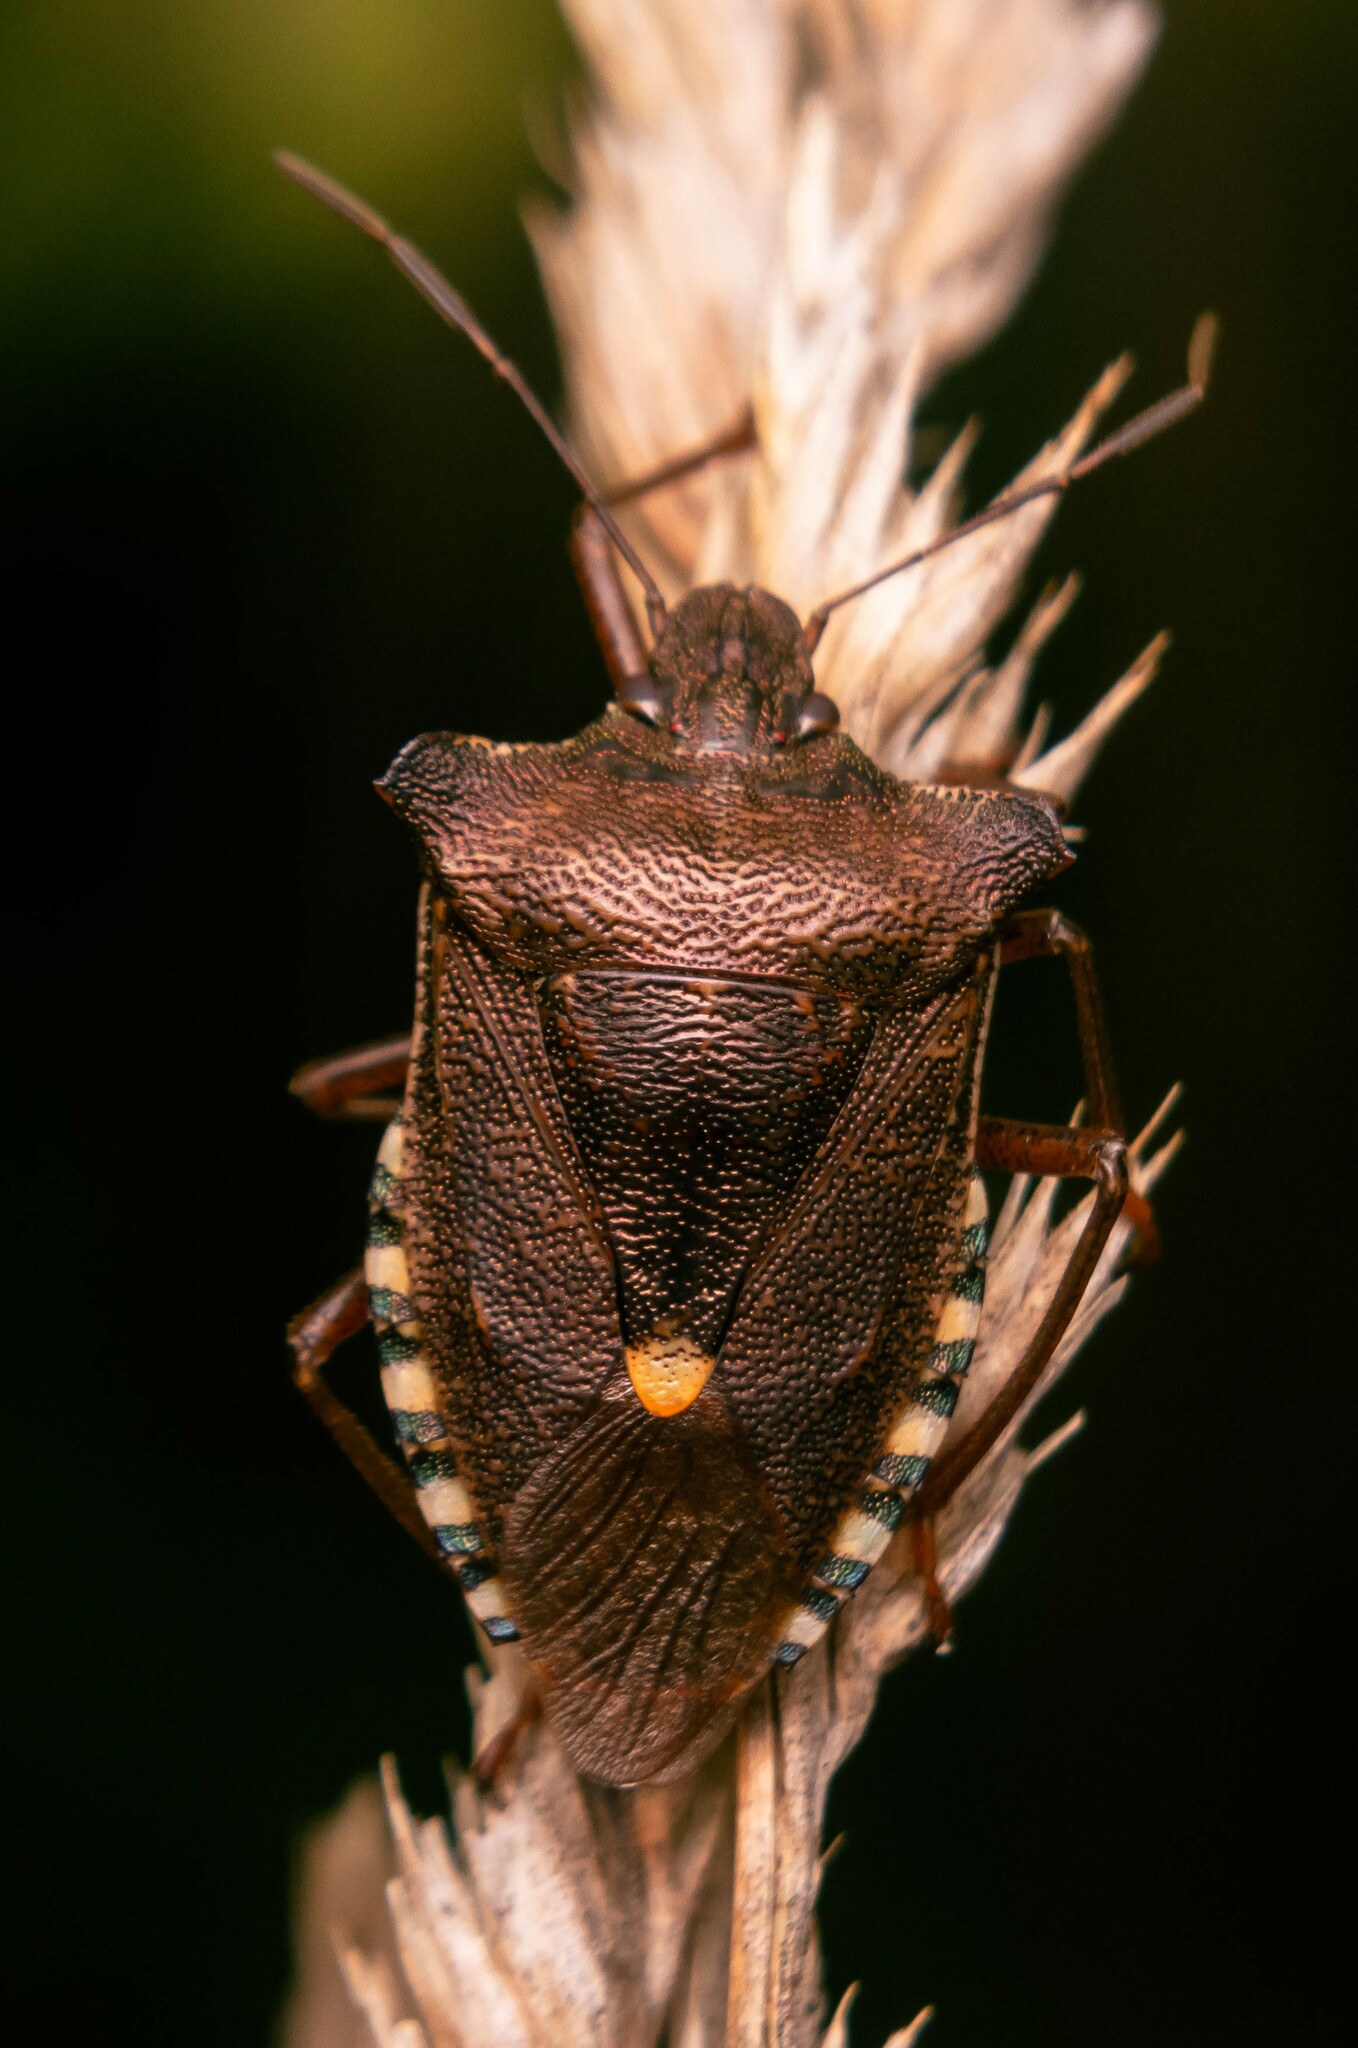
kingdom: Animalia
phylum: Arthropoda
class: Insecta
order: Hemiptera
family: Pentatomidae
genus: Pentatoma
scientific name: Pentatoma rufipes
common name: Forest bug
